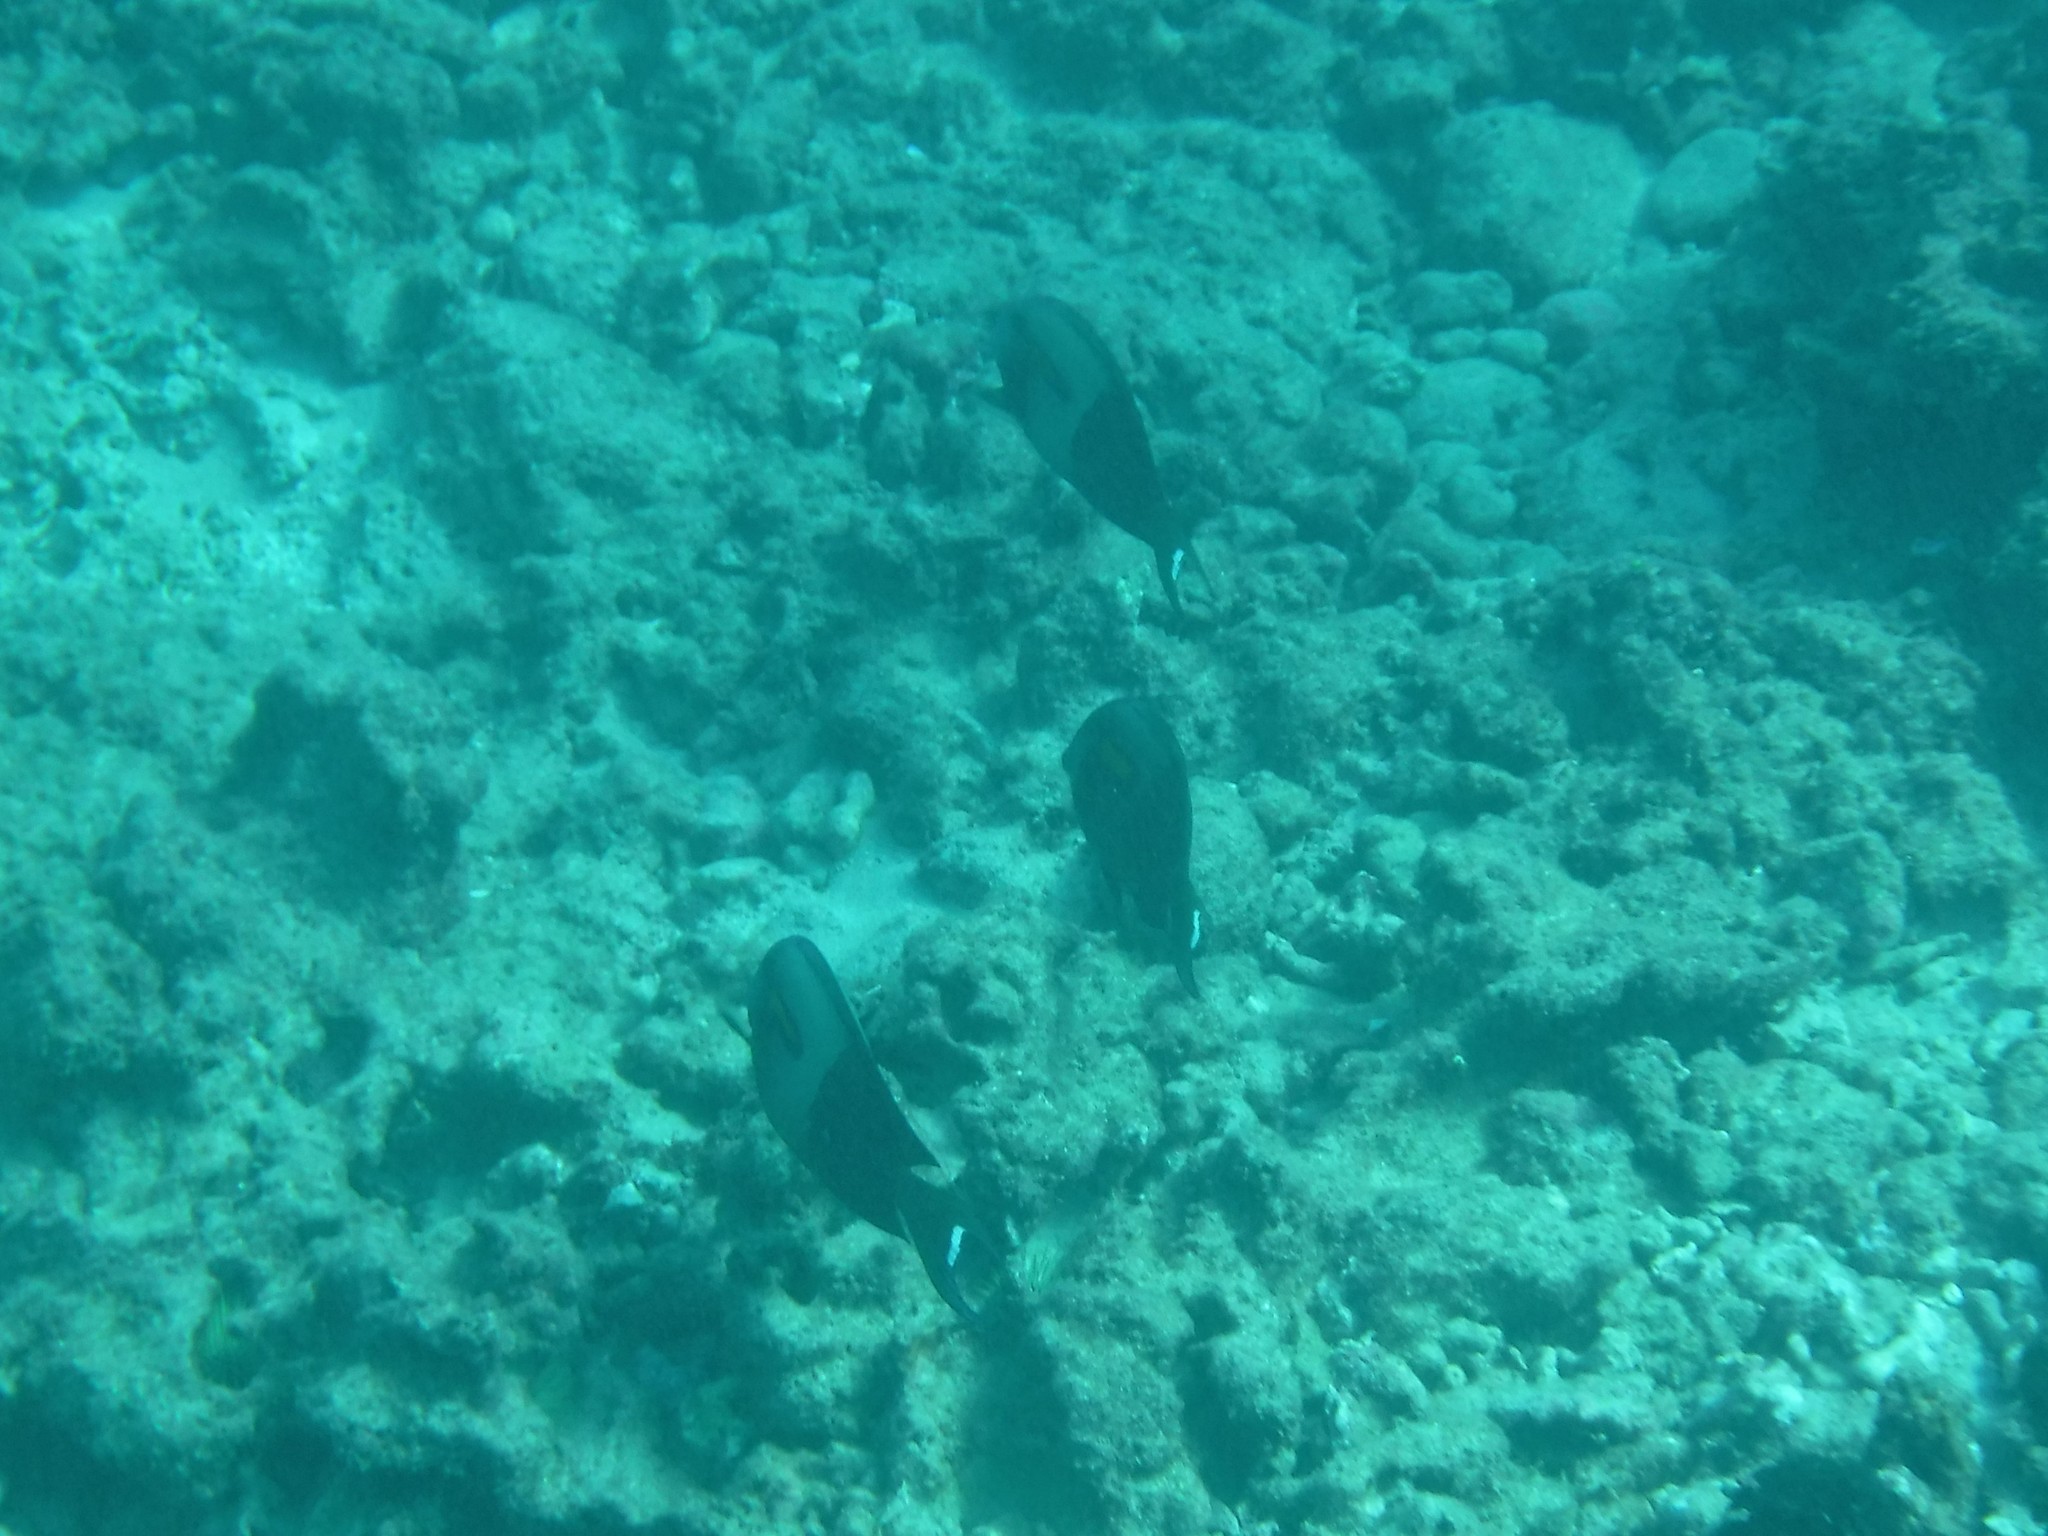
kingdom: Animalia
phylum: Chordata
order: Perciformes
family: Acanthuridae
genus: Acanthurus
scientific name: Acanthurus olivaceus
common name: Gendarme fish
